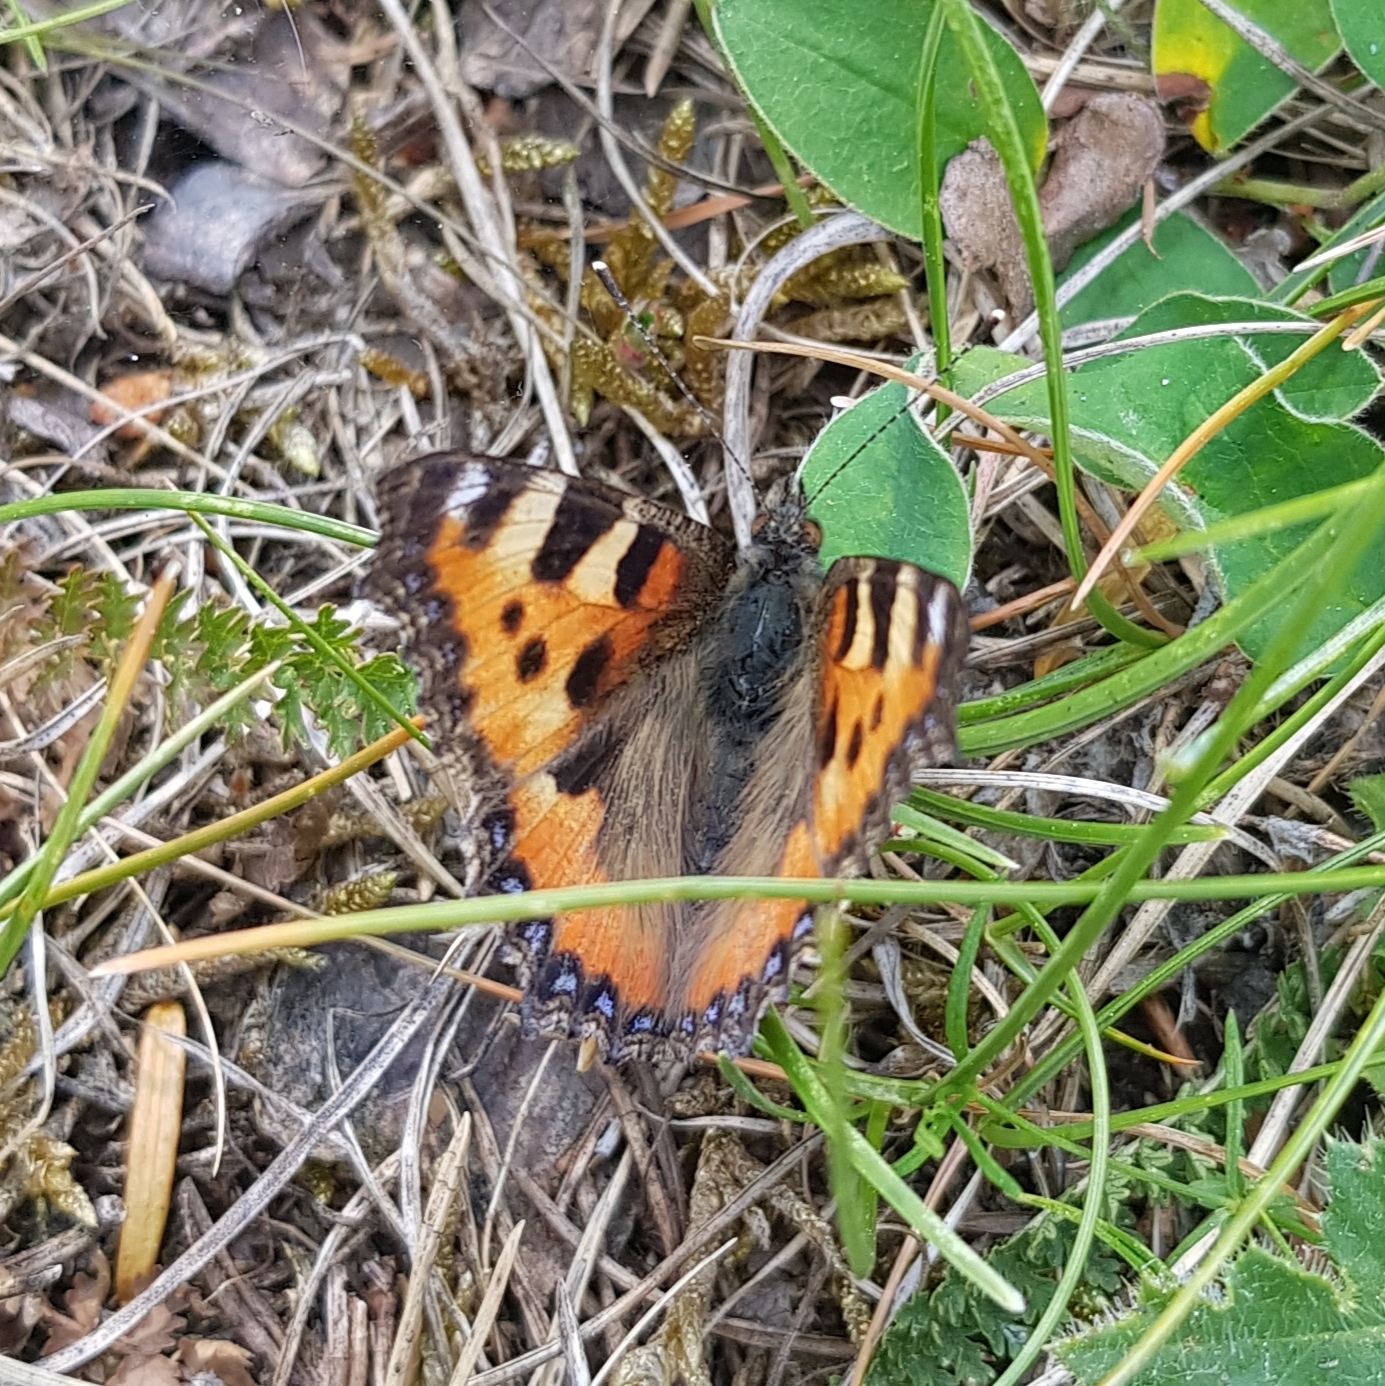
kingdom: Animalia
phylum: Arthropoda
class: Insecta
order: Lepidoptera
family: Nymphalidae
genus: Aglais
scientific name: Aglais urticae
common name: Small tortoiseshell
